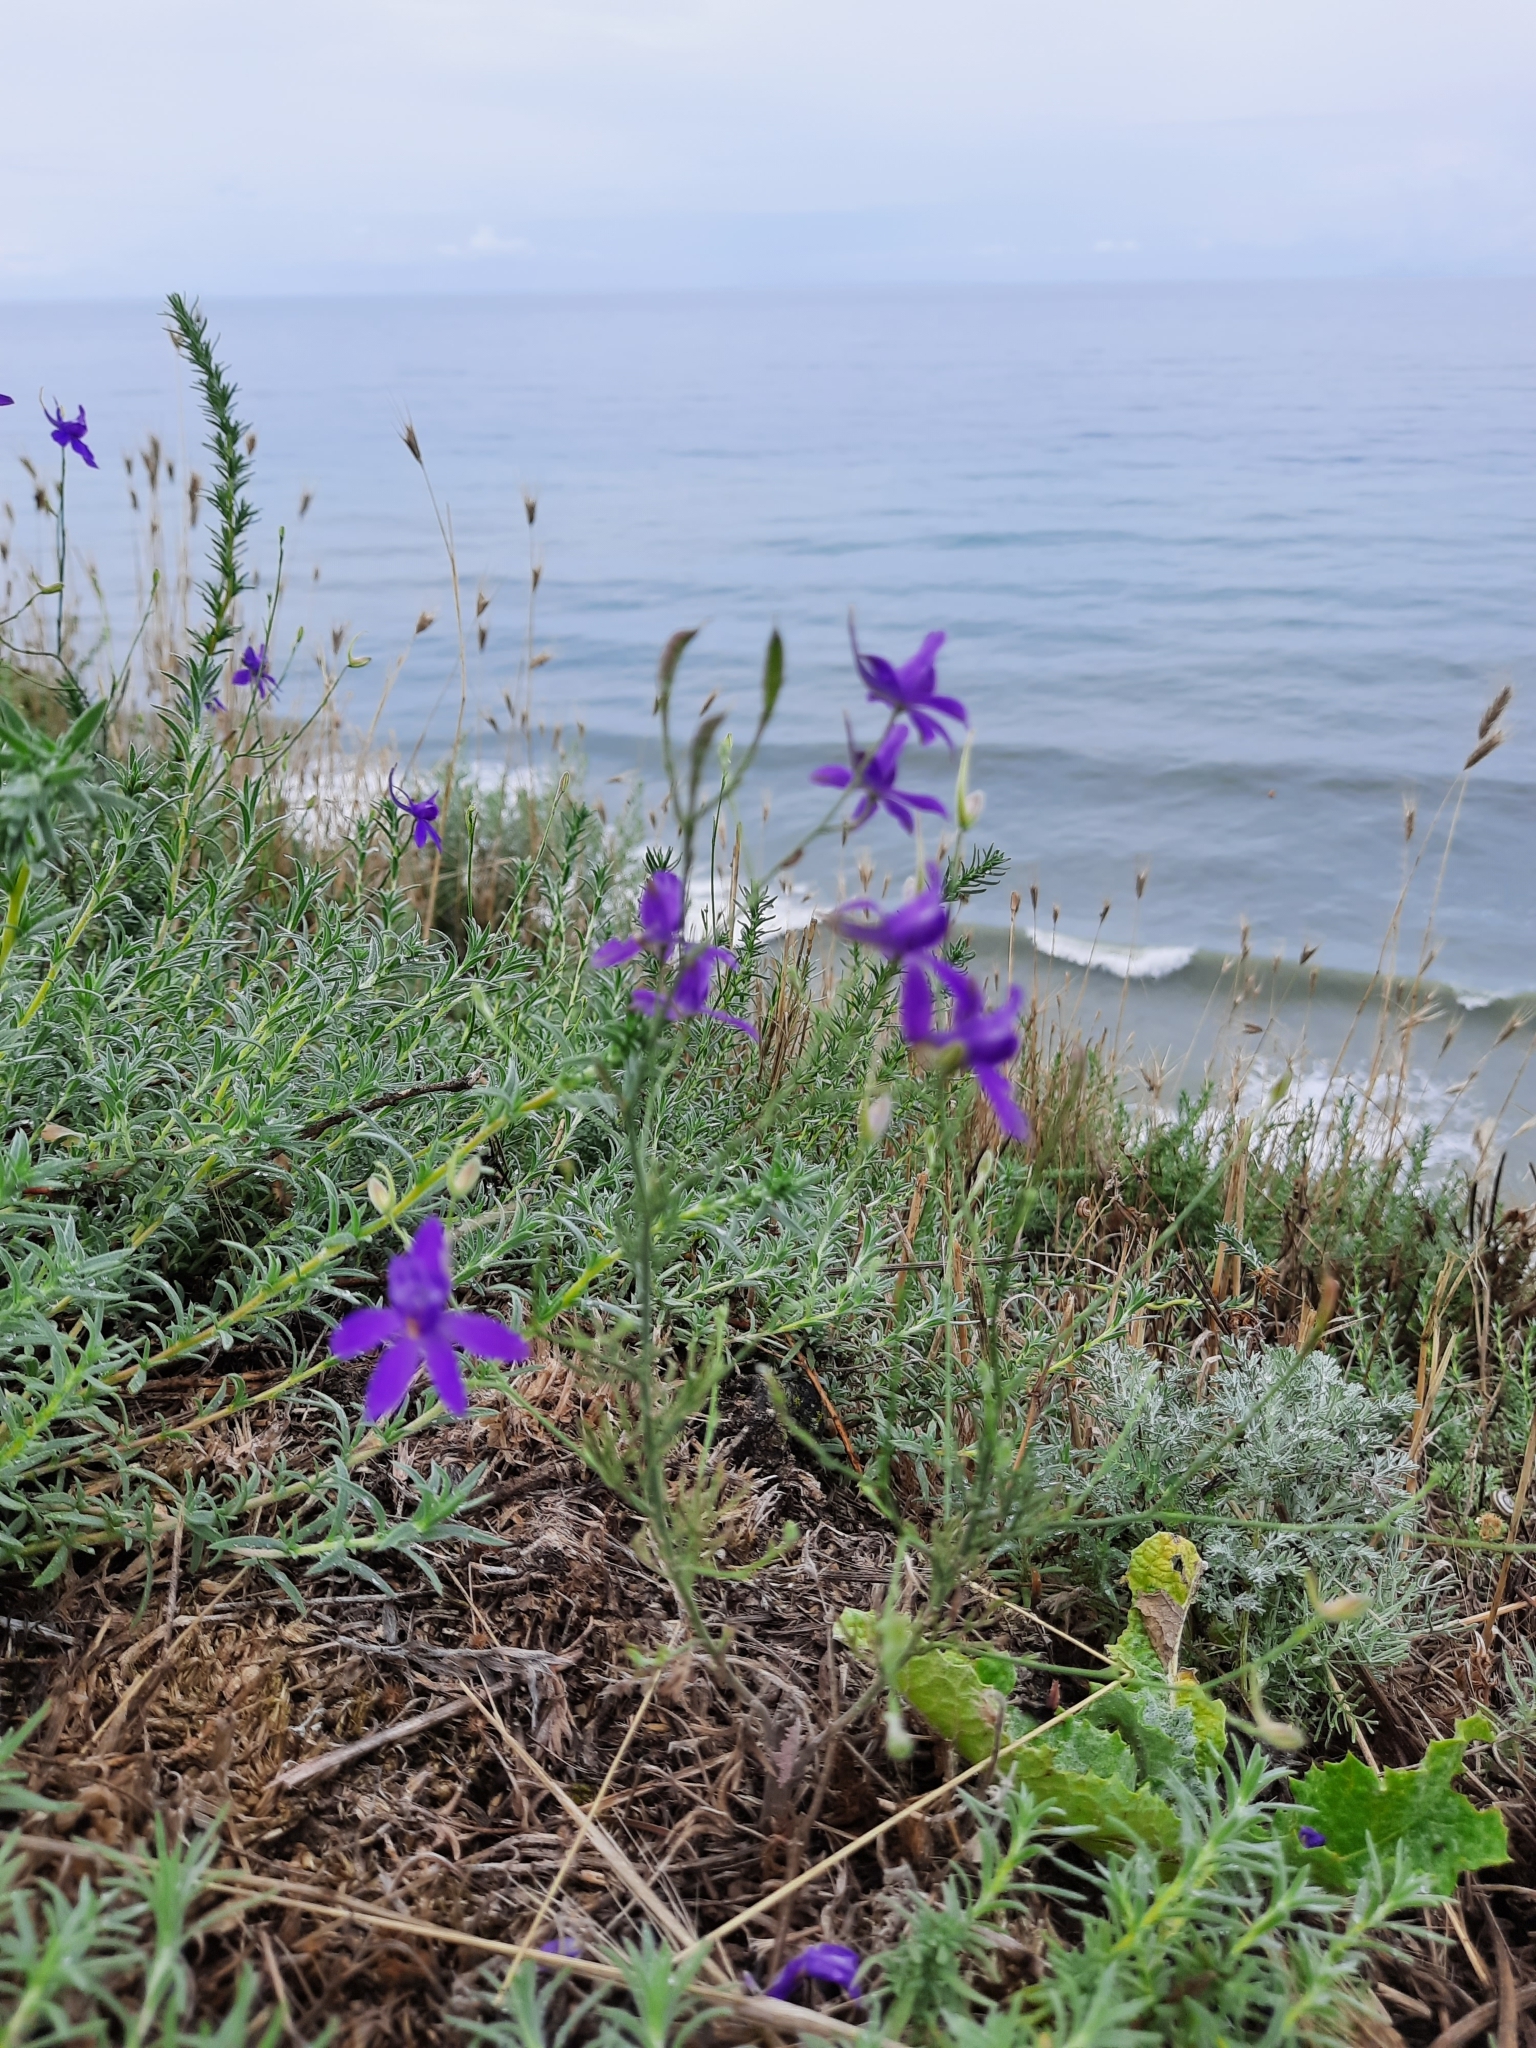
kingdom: Plantae
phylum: Tracheophyta
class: Magnoliopsida
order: Ranunculales
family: Ranunculaceae
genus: Delphinium
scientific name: Delphinium consolida
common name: Branching larkspur
